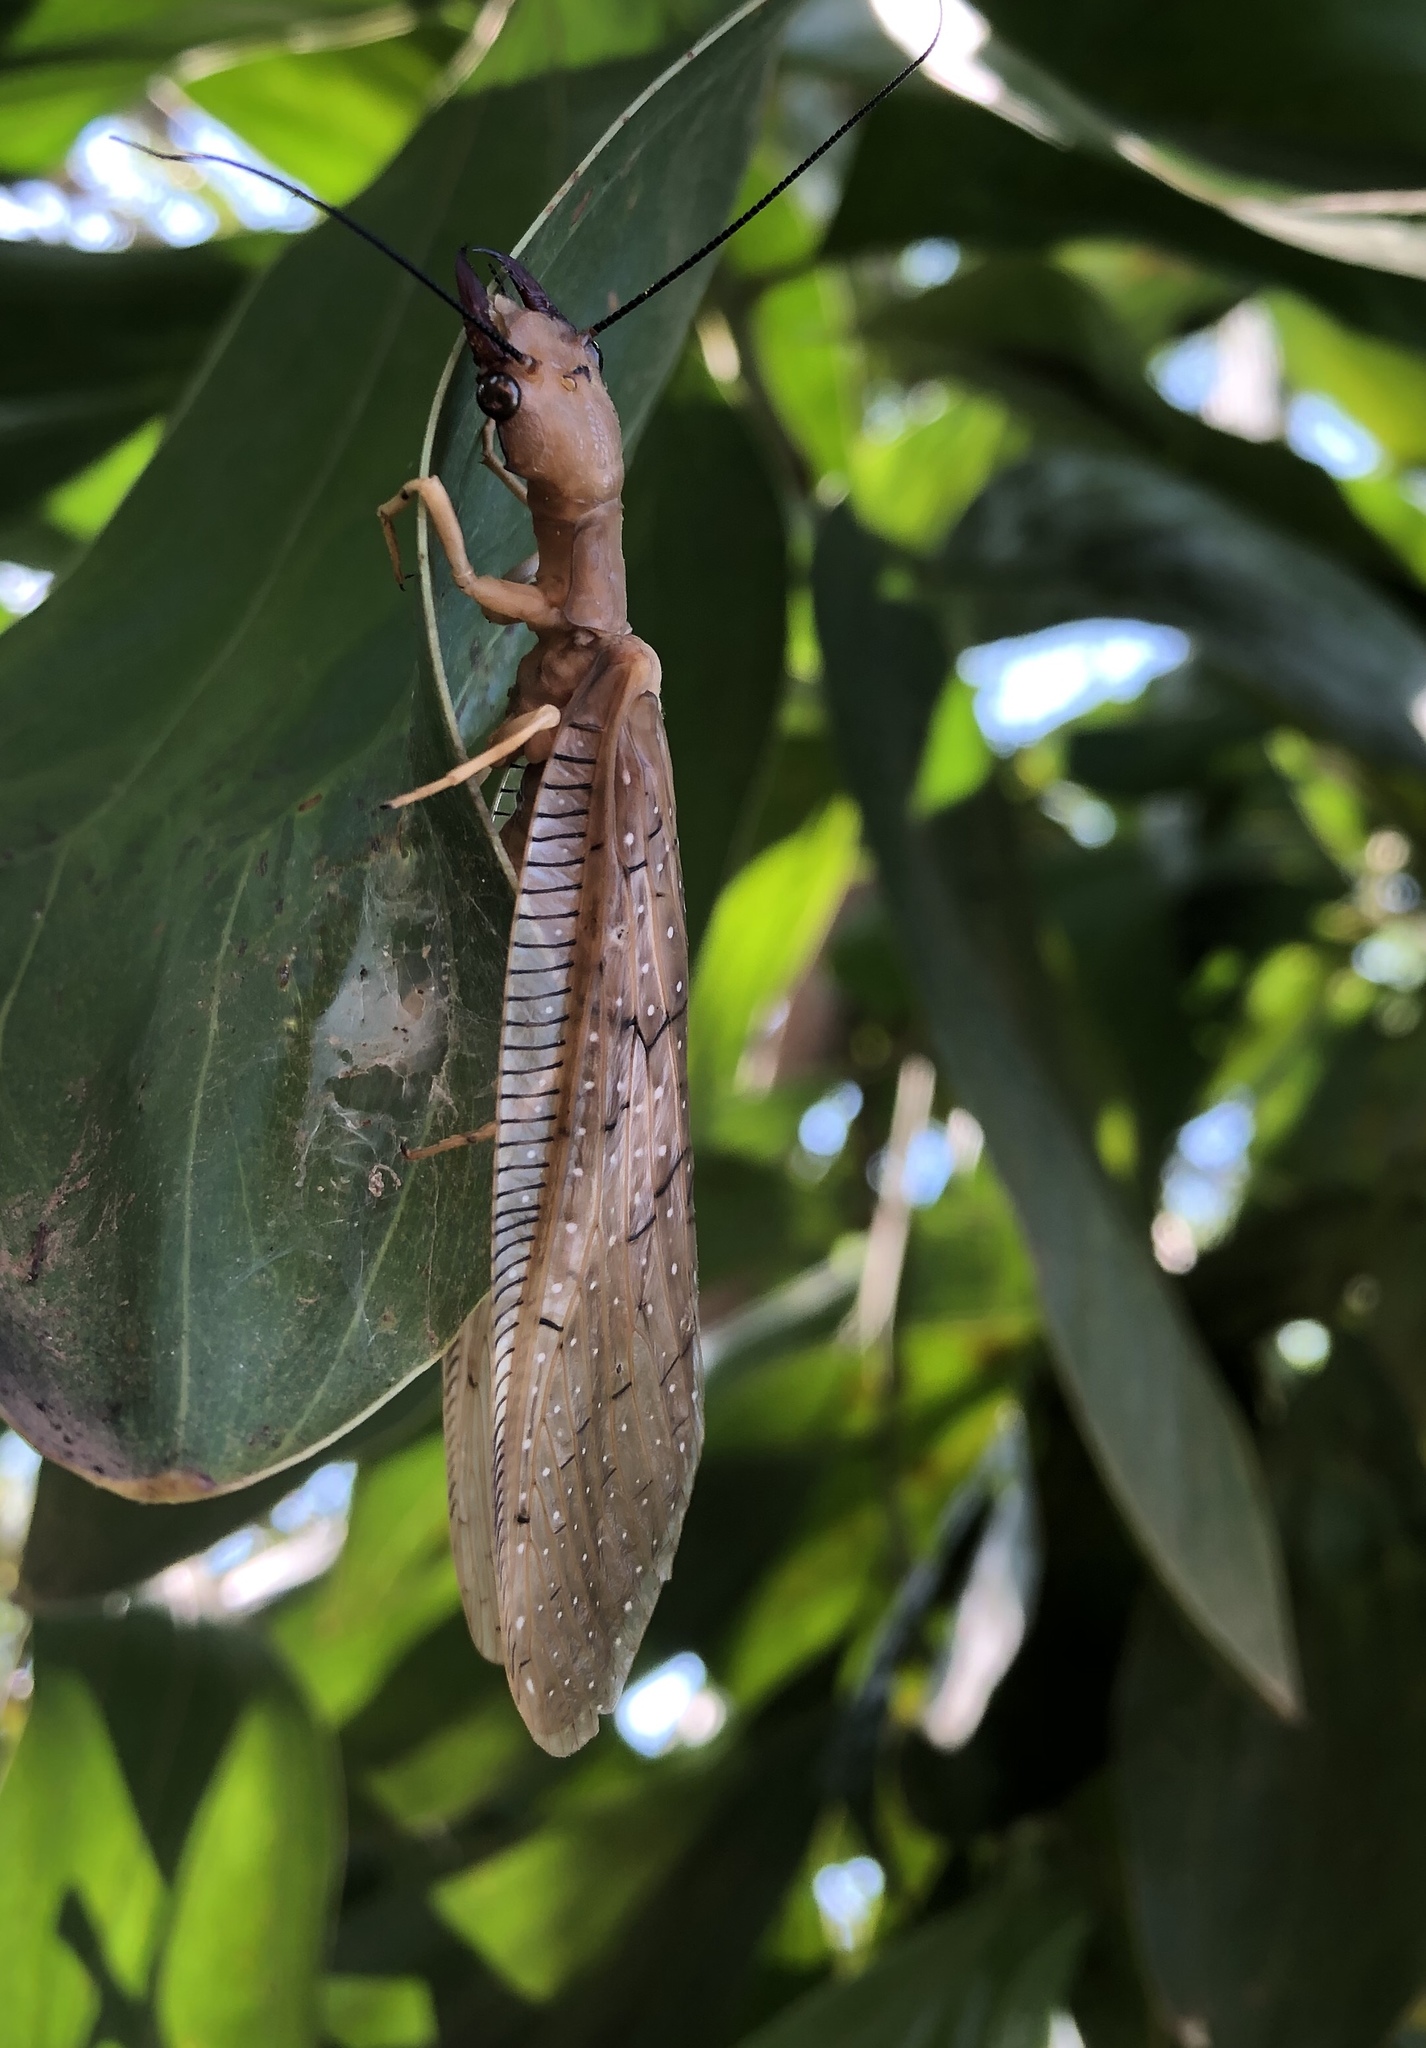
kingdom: Animalia
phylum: Arthropoda
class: Insecta
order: Megaloptera
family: Corydalidae
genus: Corydalus
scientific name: Corydalus affinis
